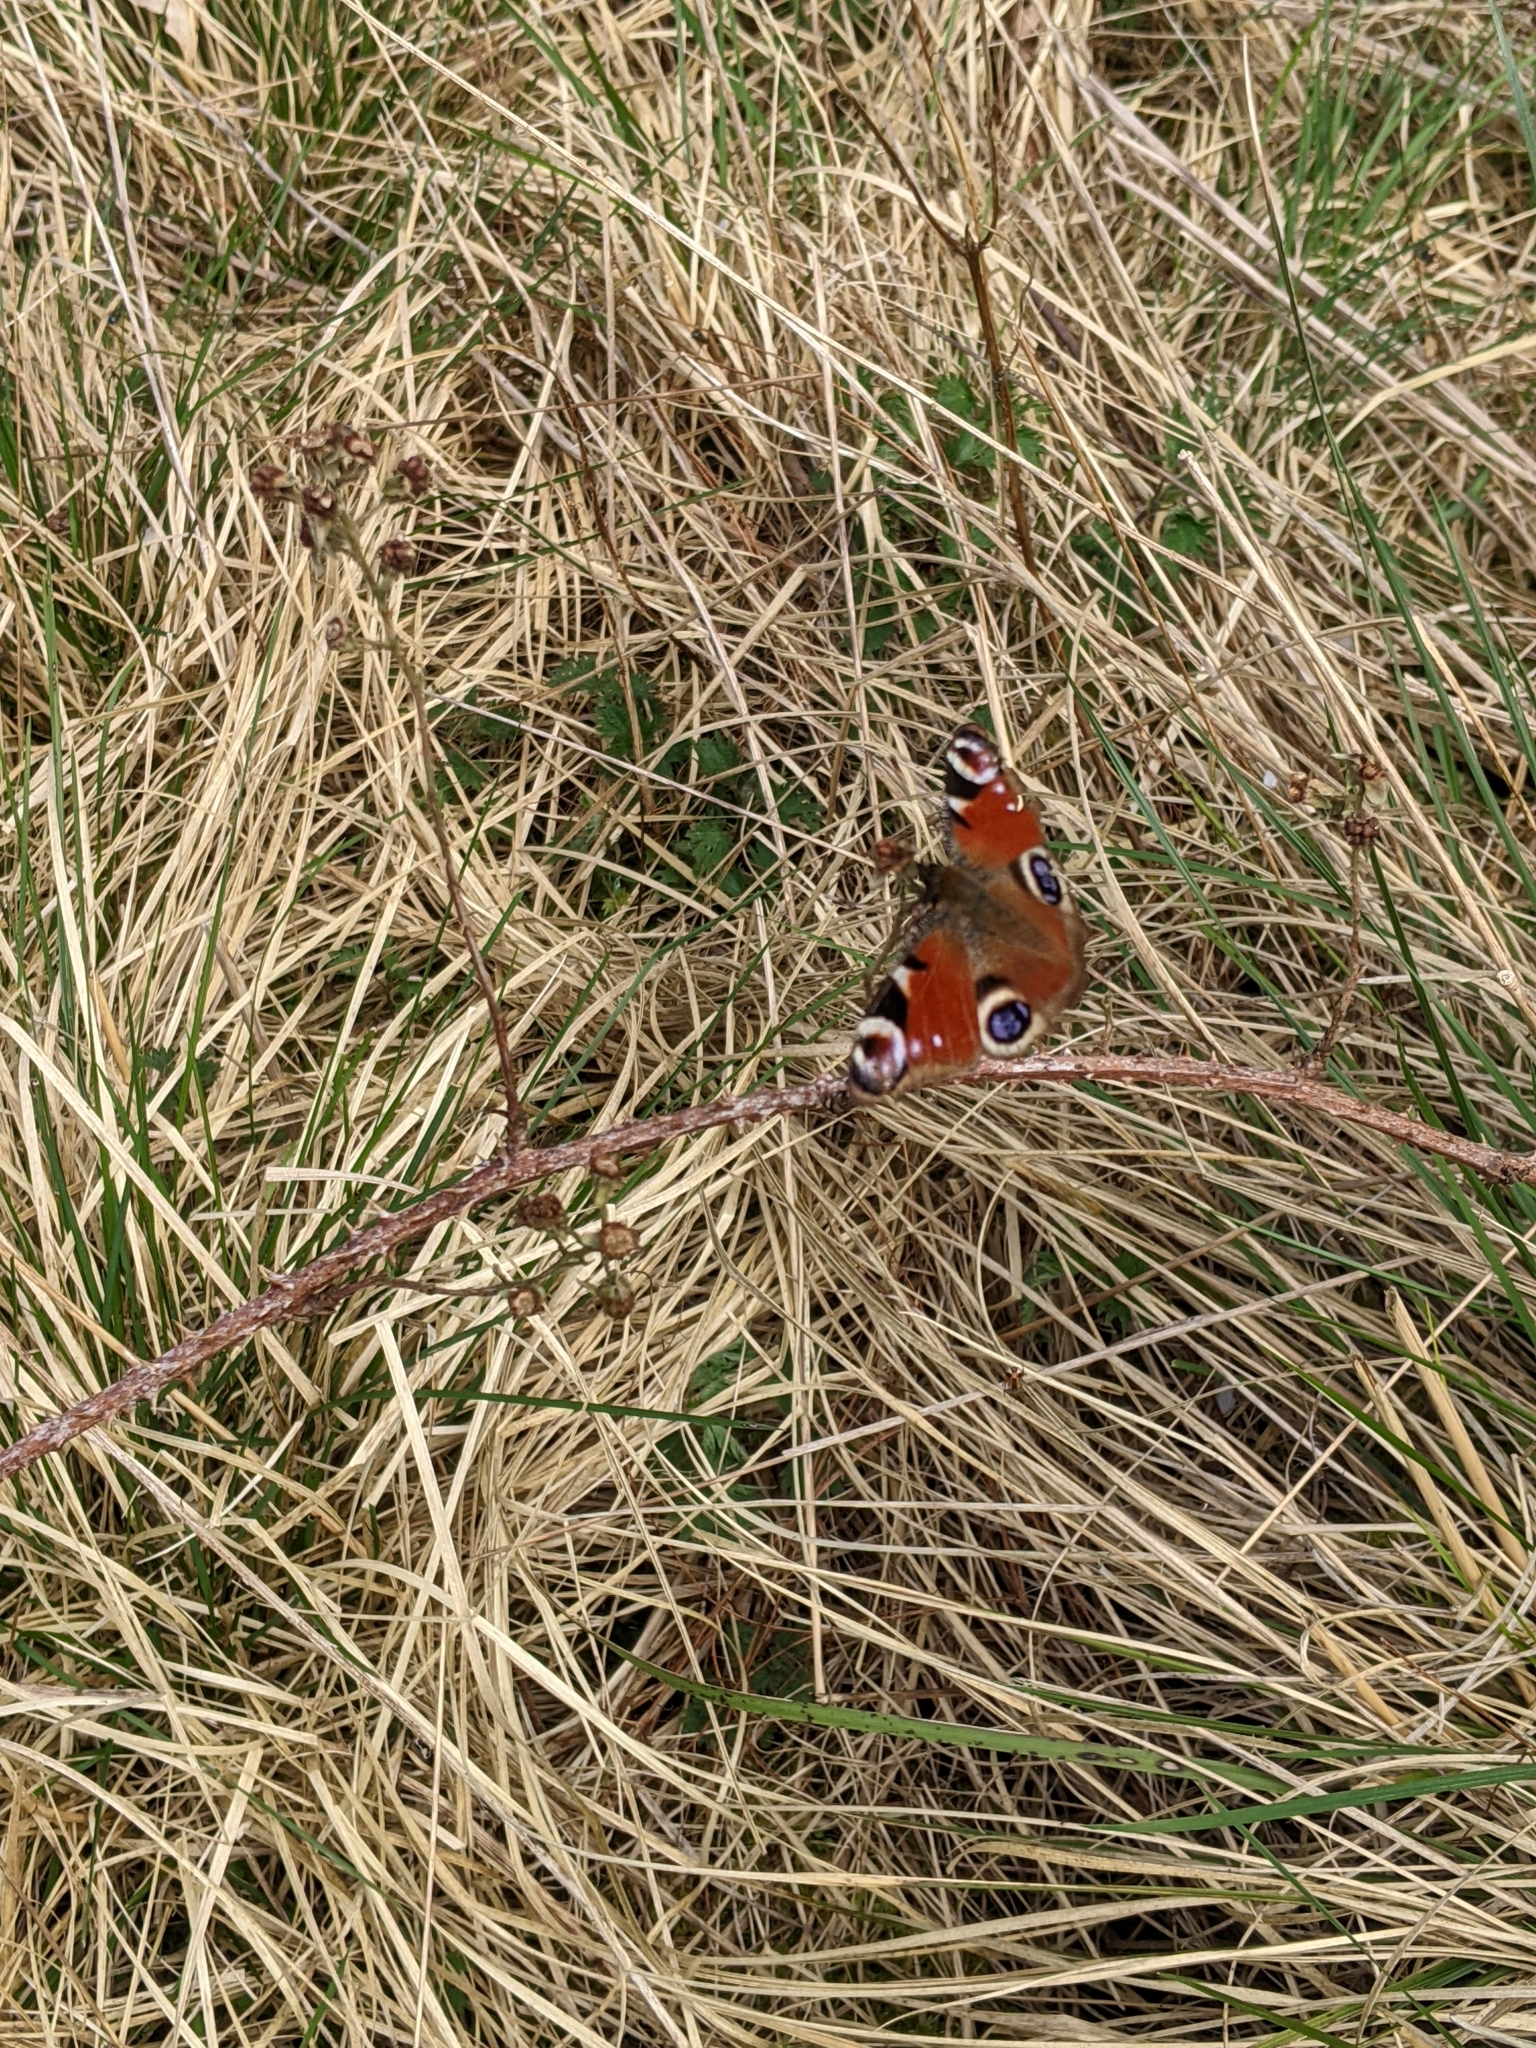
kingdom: Animalia
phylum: Arthropoda
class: Insecta
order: Lepidoptera
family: Nymphalidae
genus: Aglais
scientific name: Aglais io
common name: Peacock
